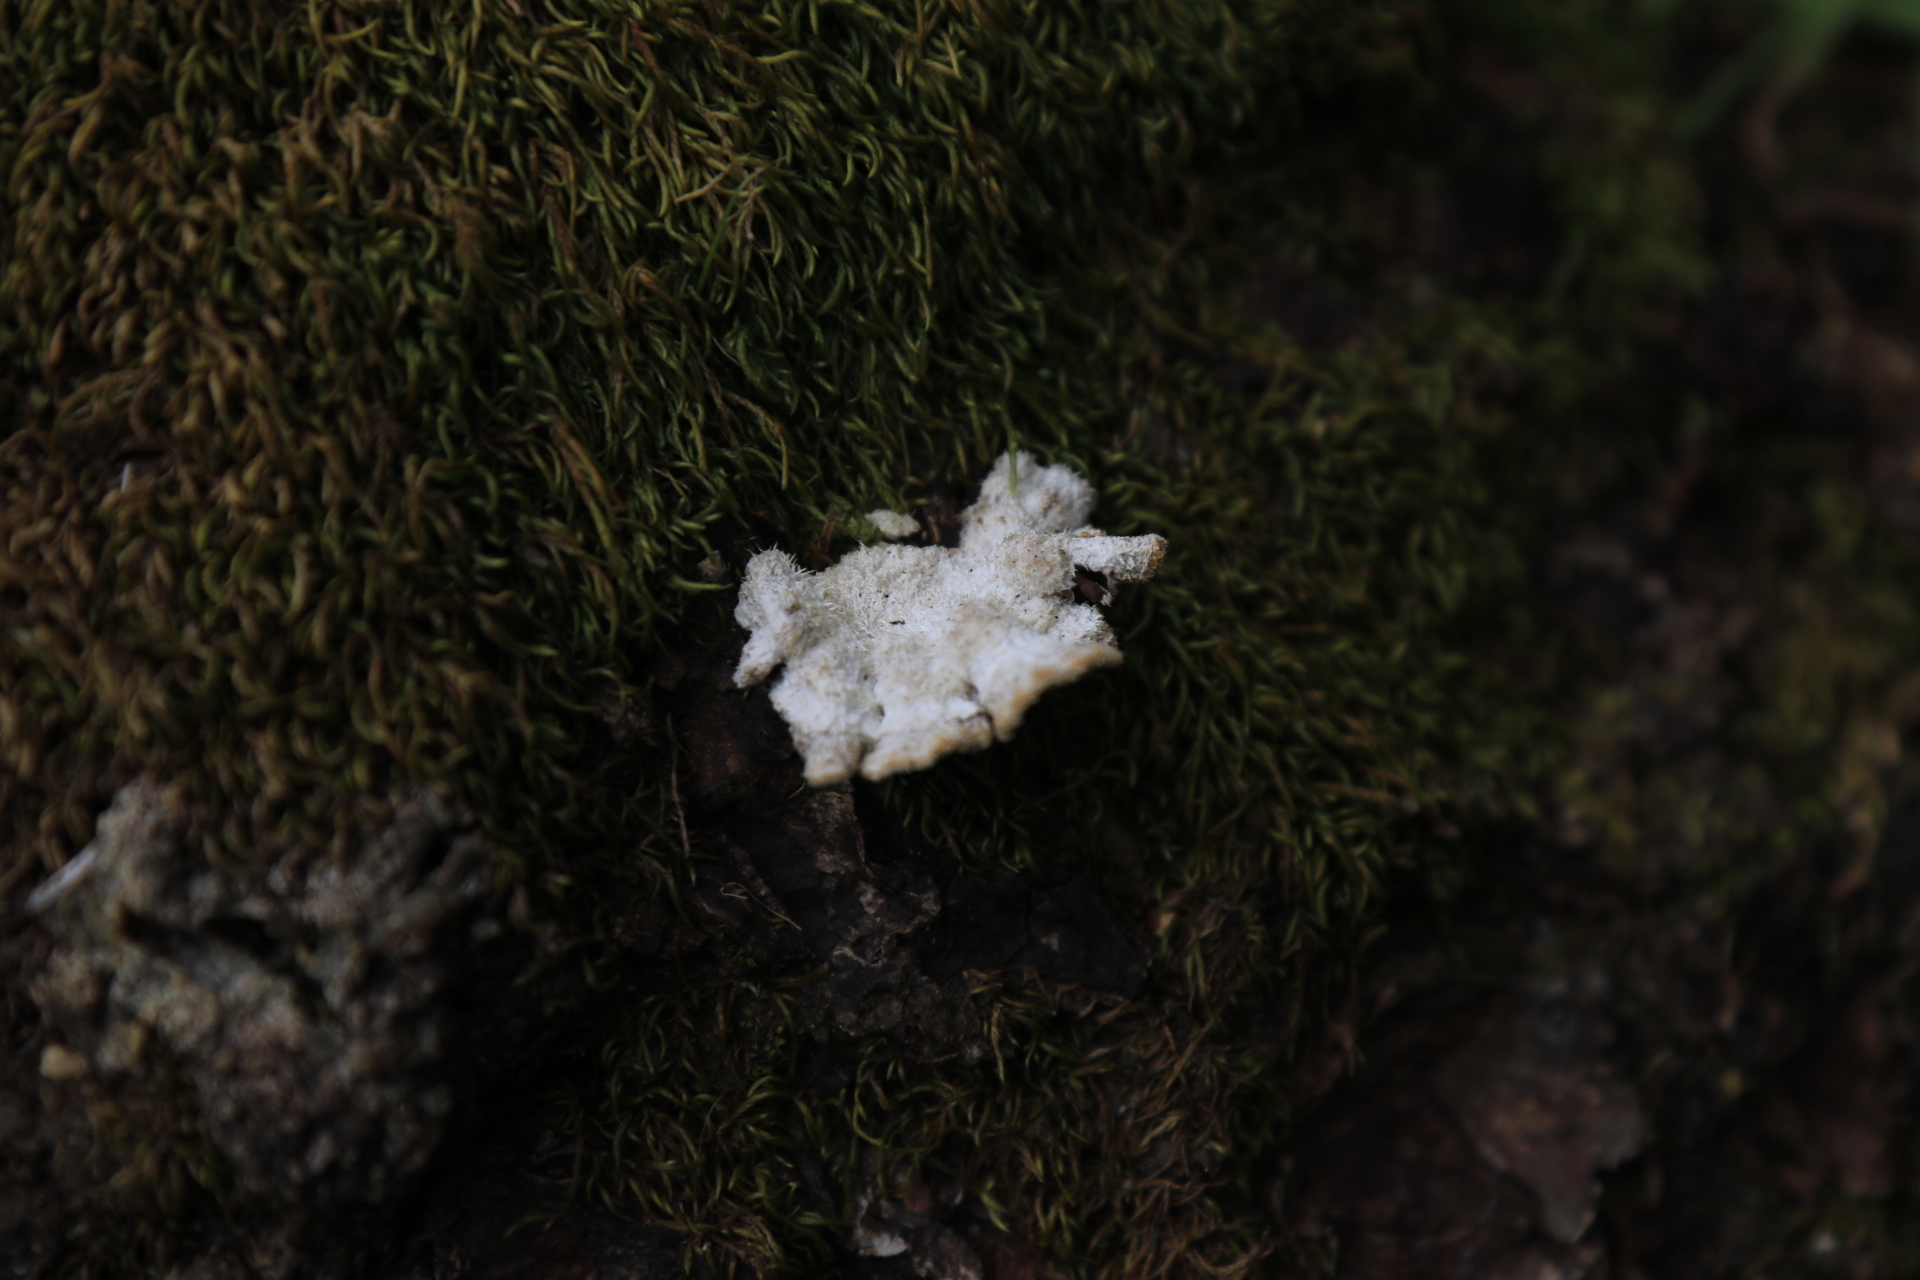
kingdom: Fungi
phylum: Basidiomycota
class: Agaricomycetes
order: Agaricales
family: Schizophyllaceae
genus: Schizophyllum
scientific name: Schizophyllum commune
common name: Common porecrust
